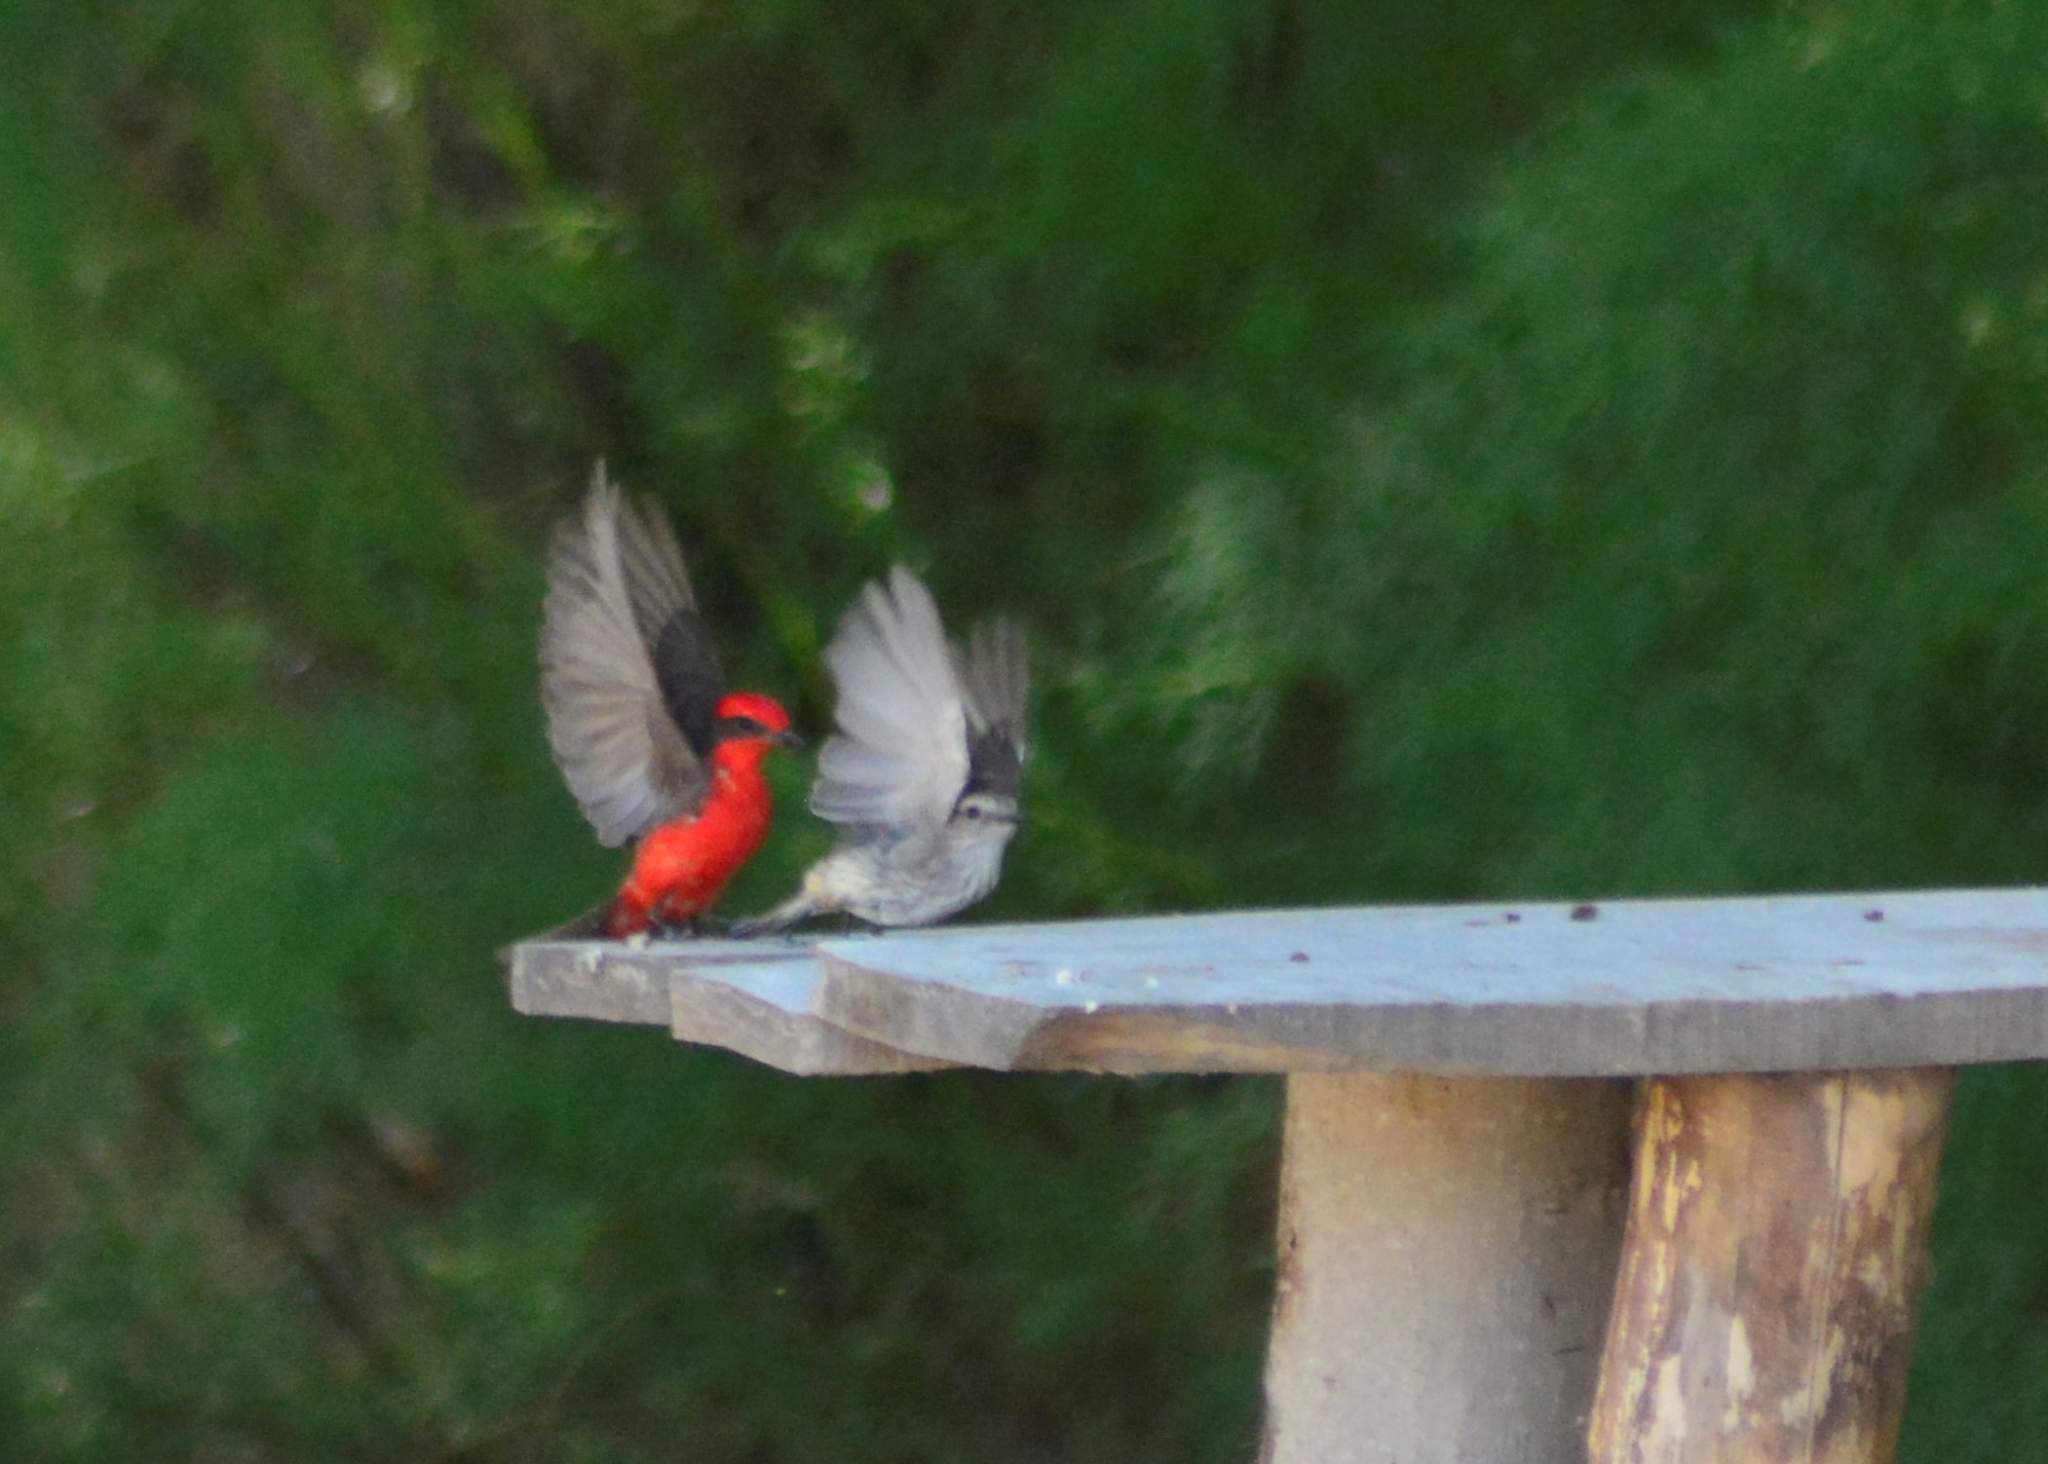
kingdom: Animalia
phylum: Chordata
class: Aves
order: Passeriformes
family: Tyrannidae
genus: Pyrocephalus
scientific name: Pyrocephalus rubinus
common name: Vermilion flycatcher
